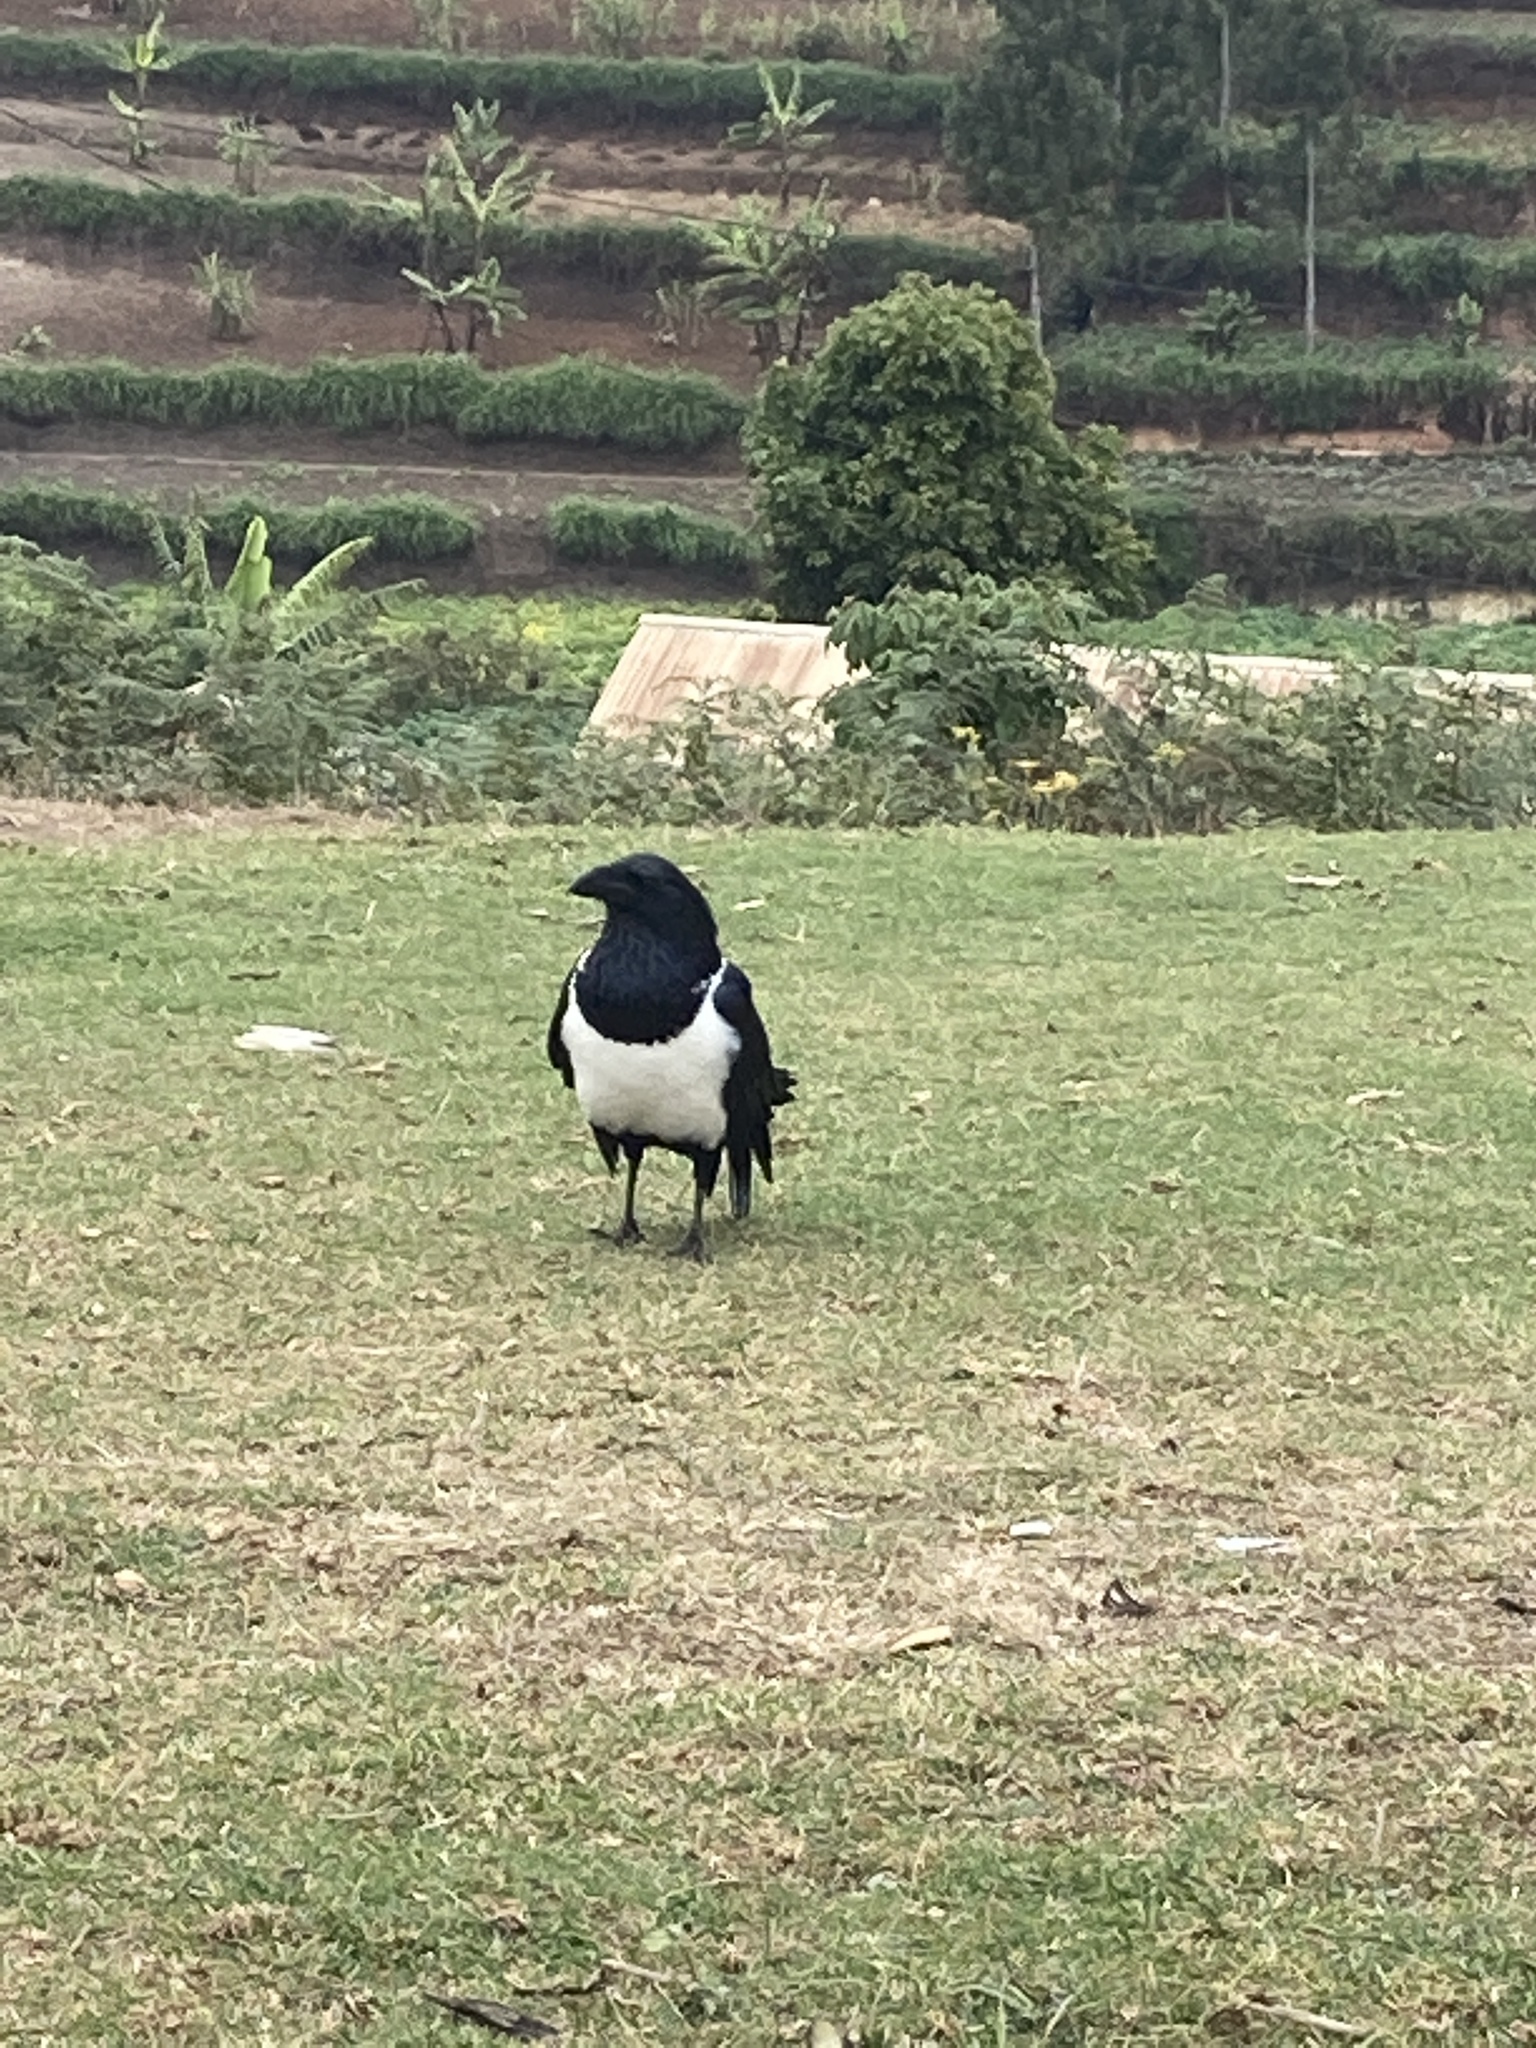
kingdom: Animalia
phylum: Chordata
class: Aves
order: Passeriformes
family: Corvidae
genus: Corvus
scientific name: Corvus albus
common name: Pied crow
